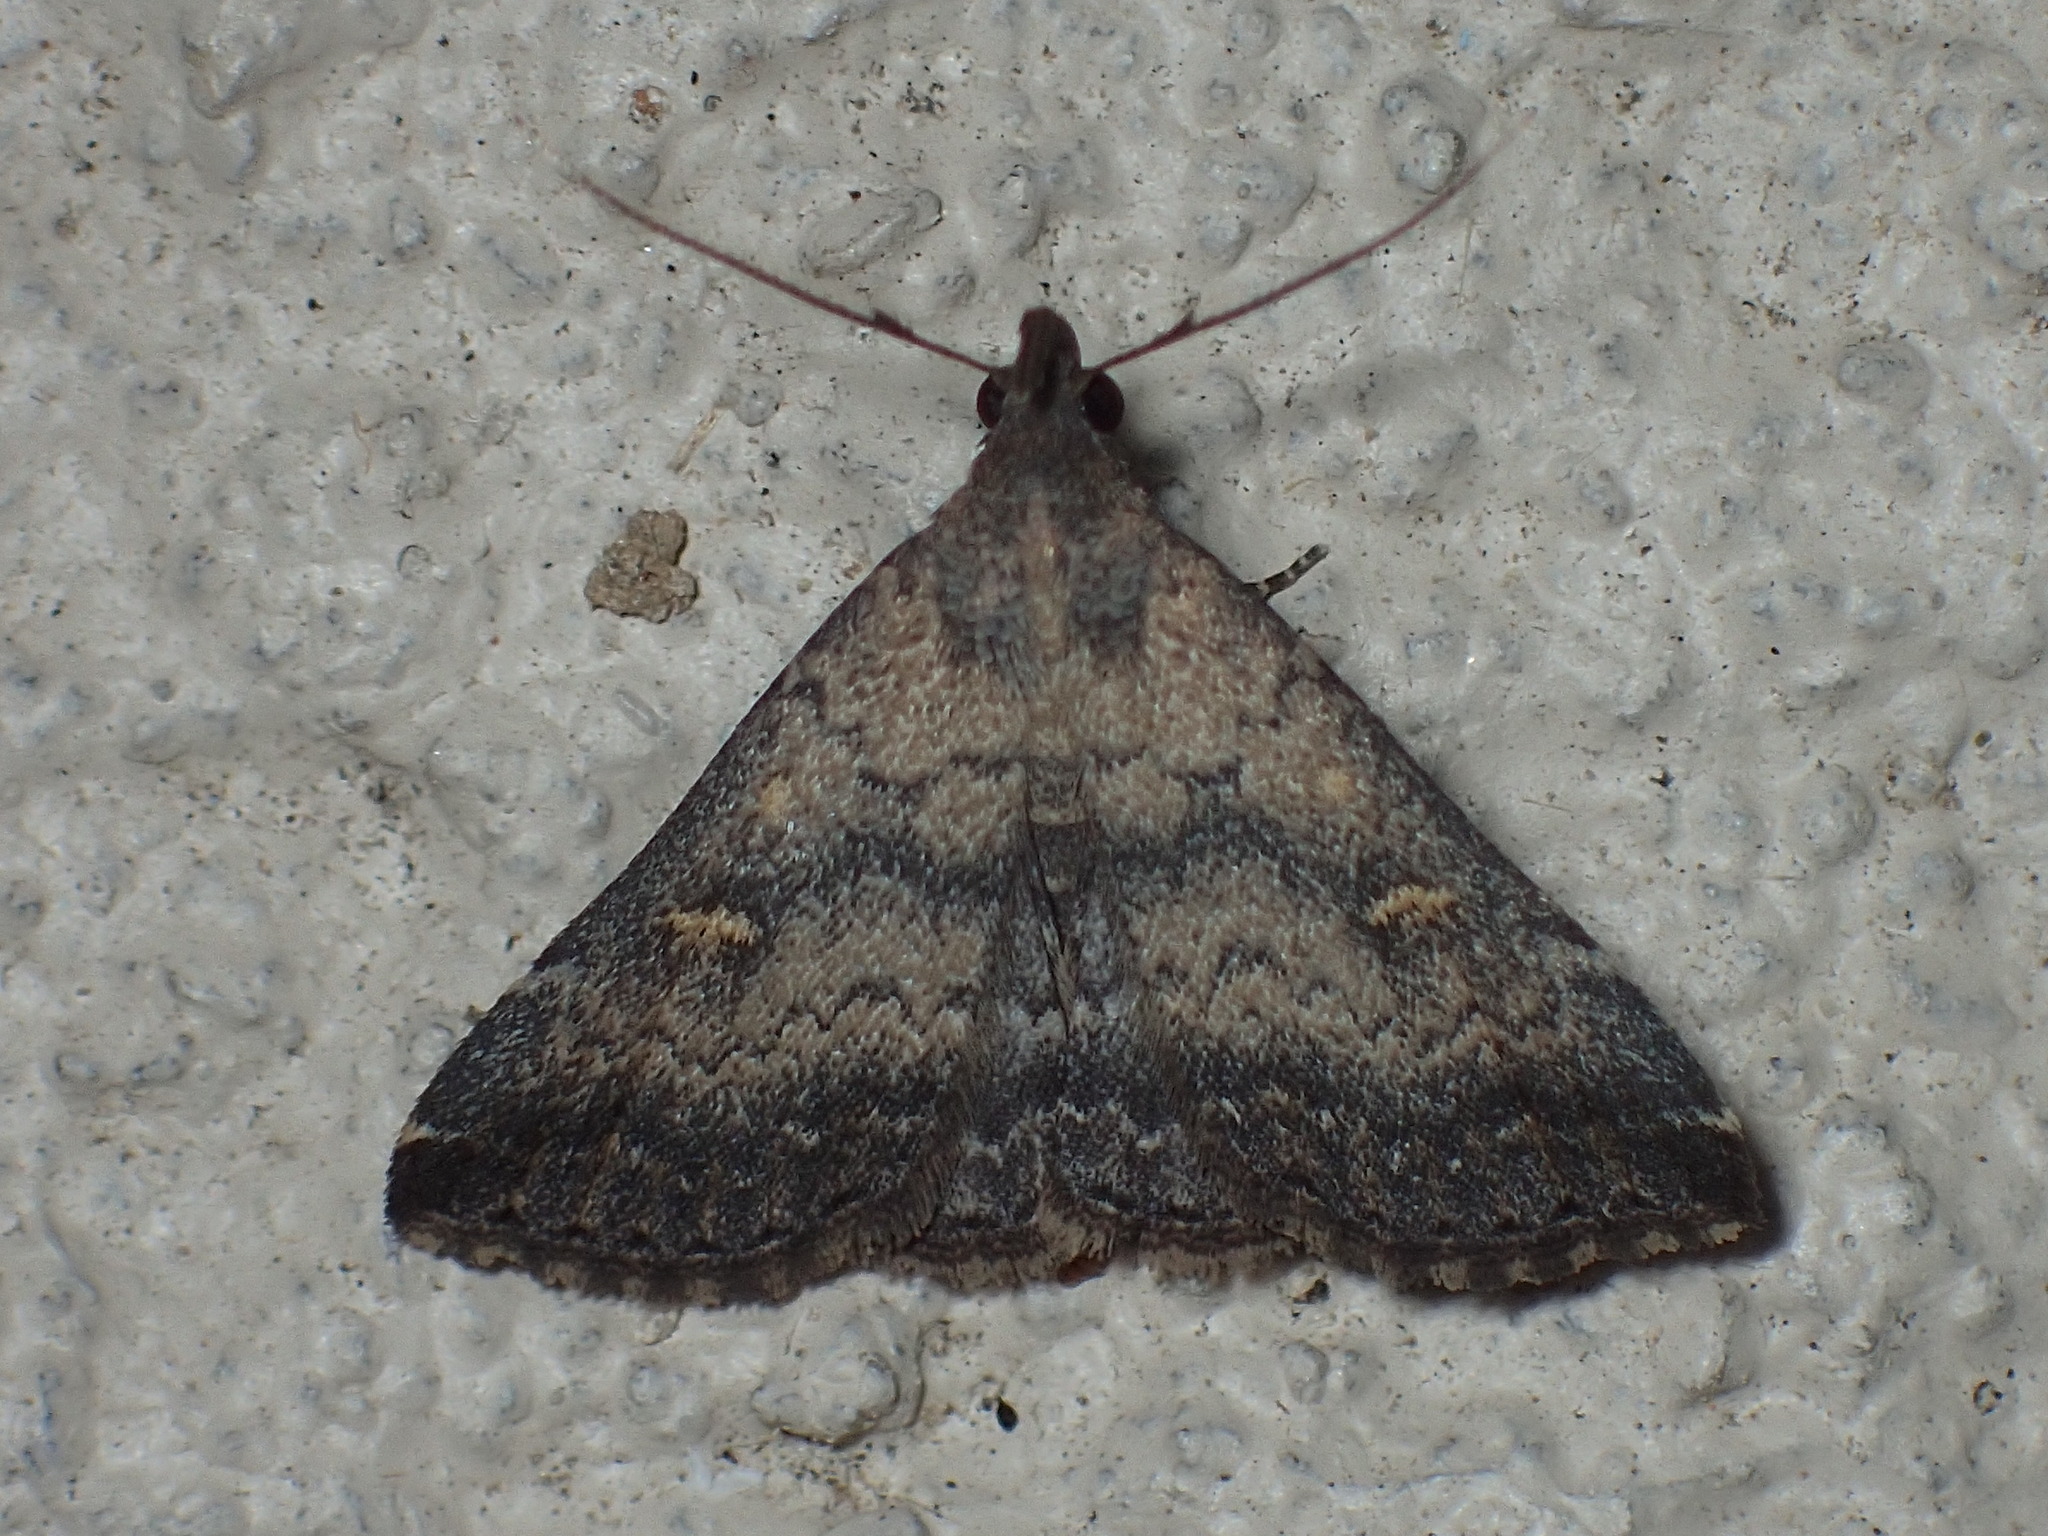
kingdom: Animalia
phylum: Arthropoda
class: Insecta
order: Lepidoptera
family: Erebidae
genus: Tetanolita
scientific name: Tetanolita floridana
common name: Florida tetanolita moth
